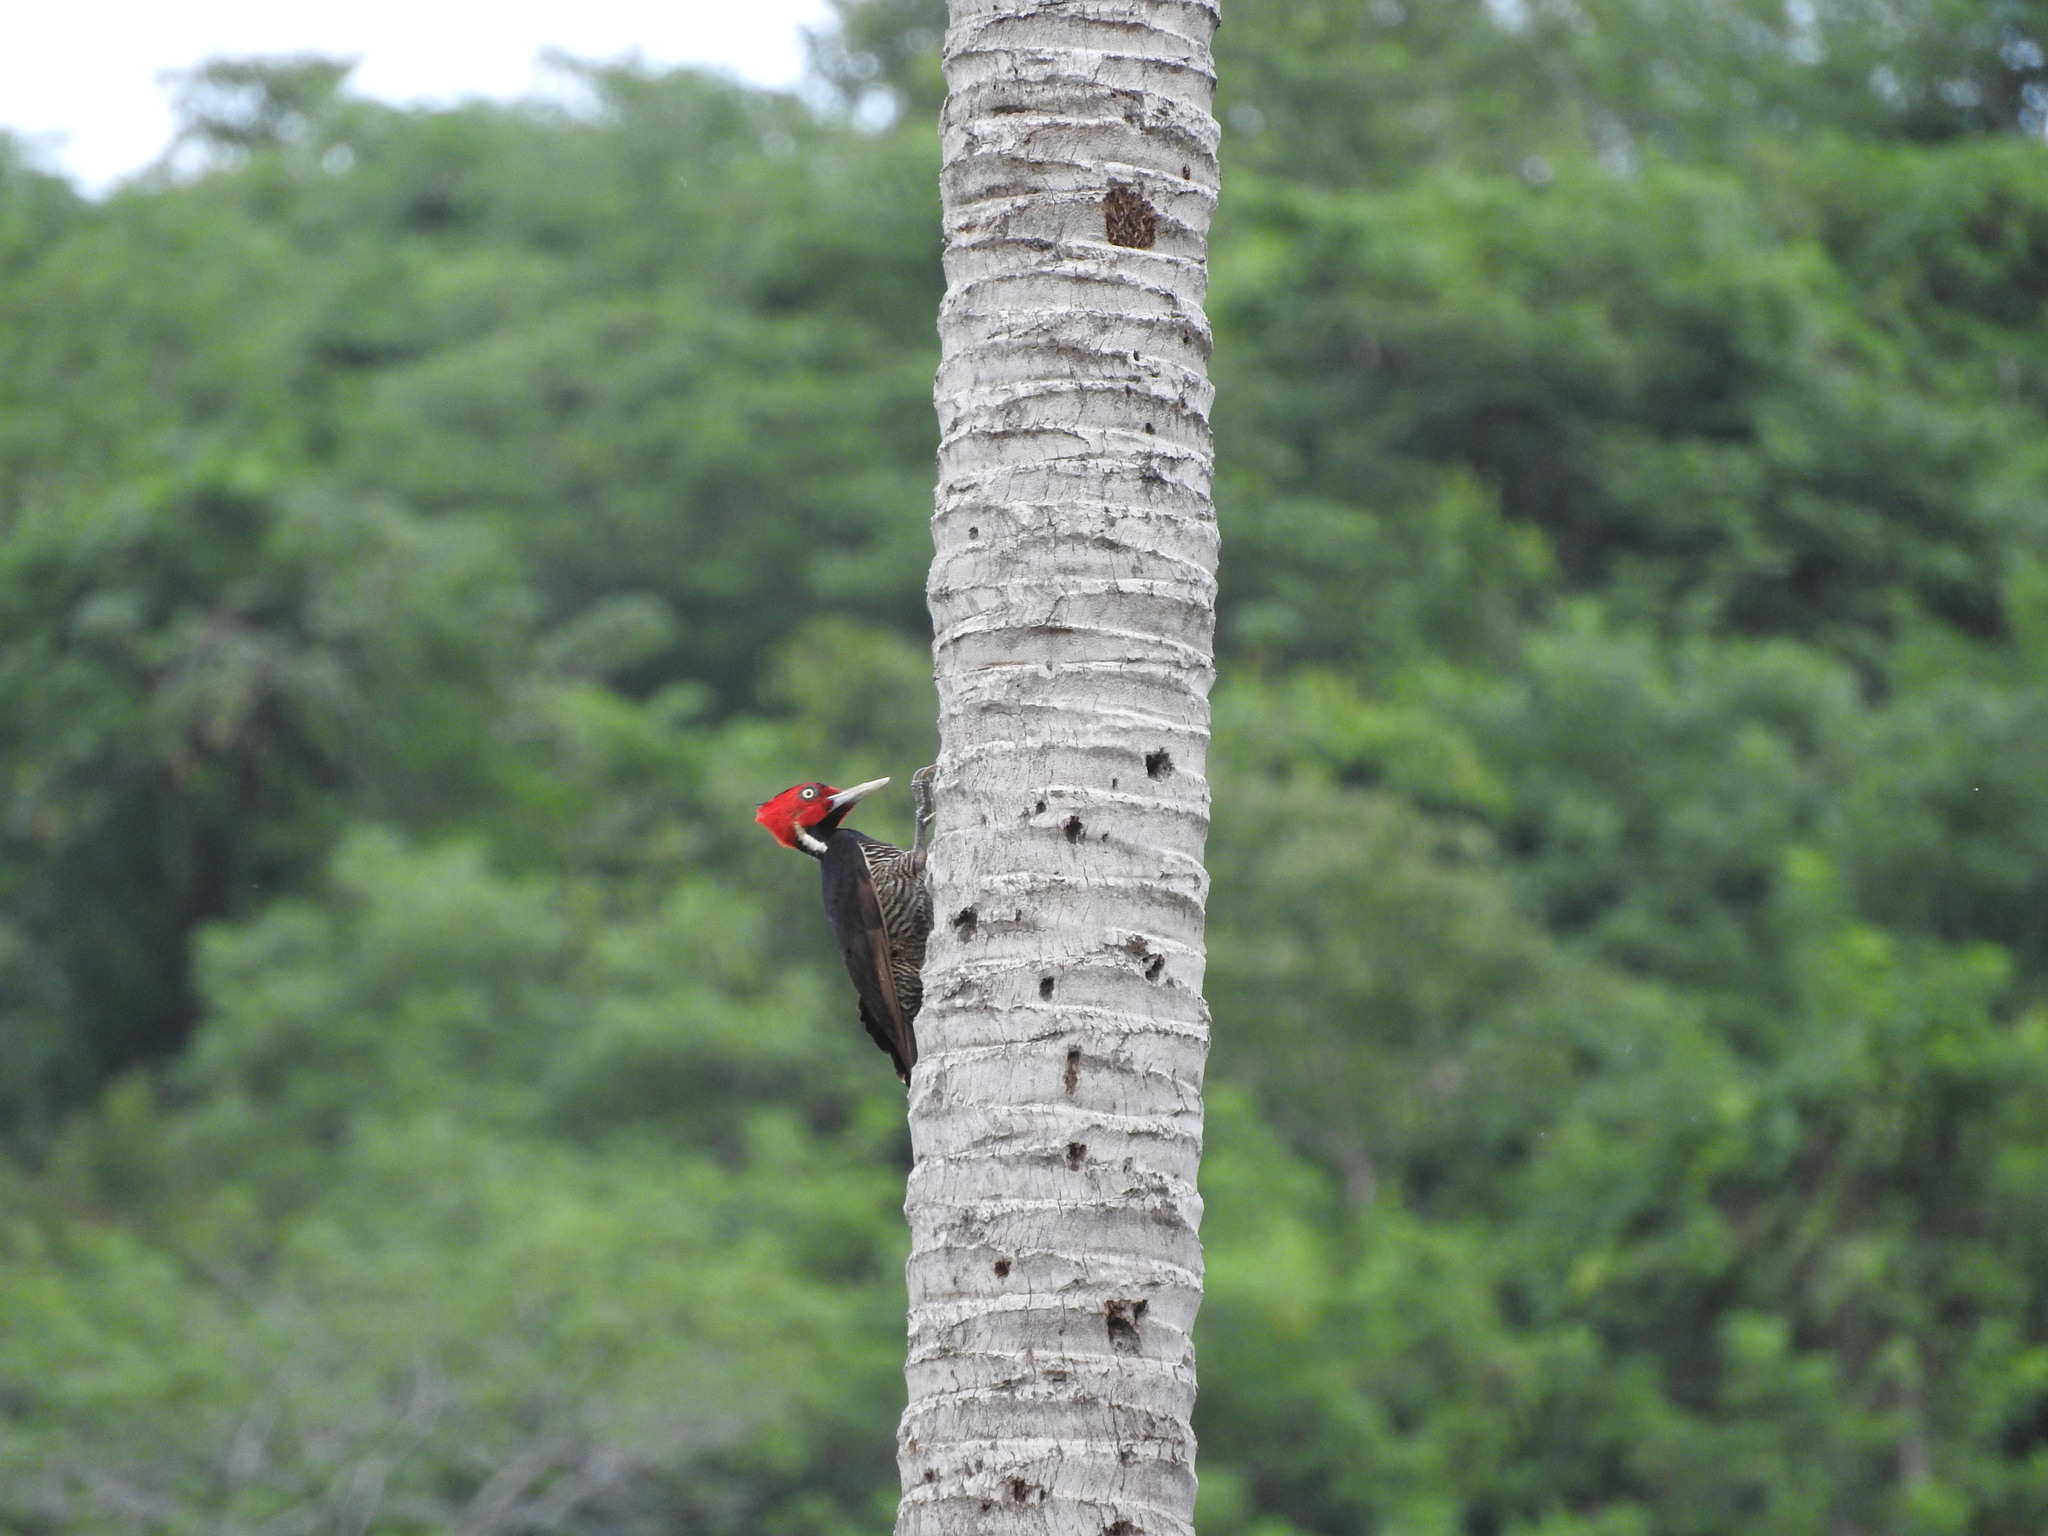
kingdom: Animalia
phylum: Chordata
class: Aves
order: Piciformes
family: Picidae
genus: Campephilus
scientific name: Campephilus guatemalensis
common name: Pale-billed woodpecker
